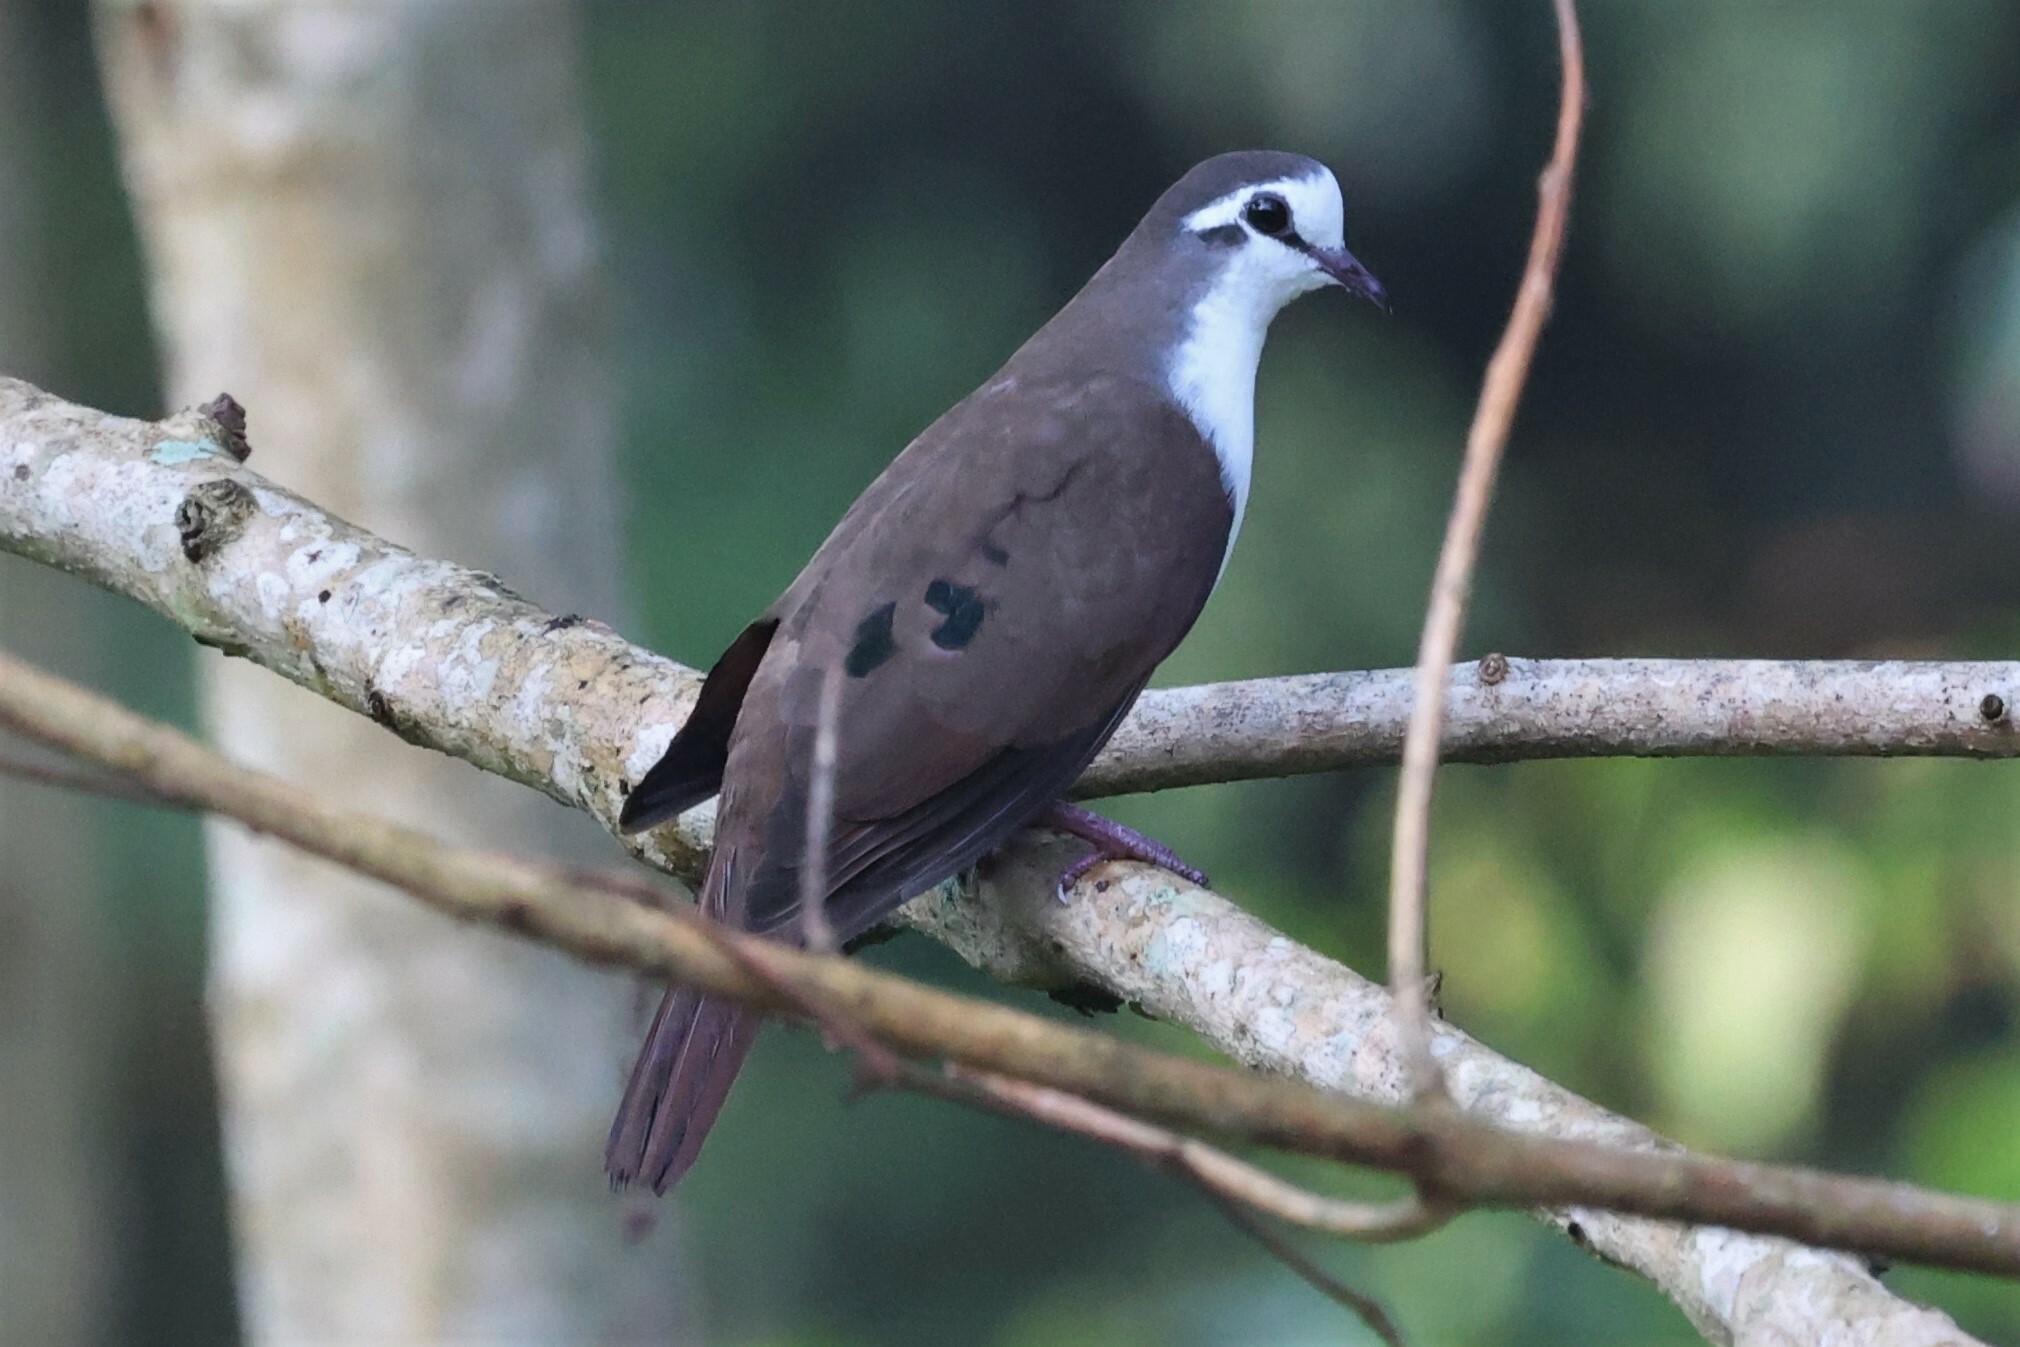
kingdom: Animalia
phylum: Chordata
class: Aves
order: Columbiformes
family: Columbidae
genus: Turtur
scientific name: Turtur tympanistria
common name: Tambourine dove
